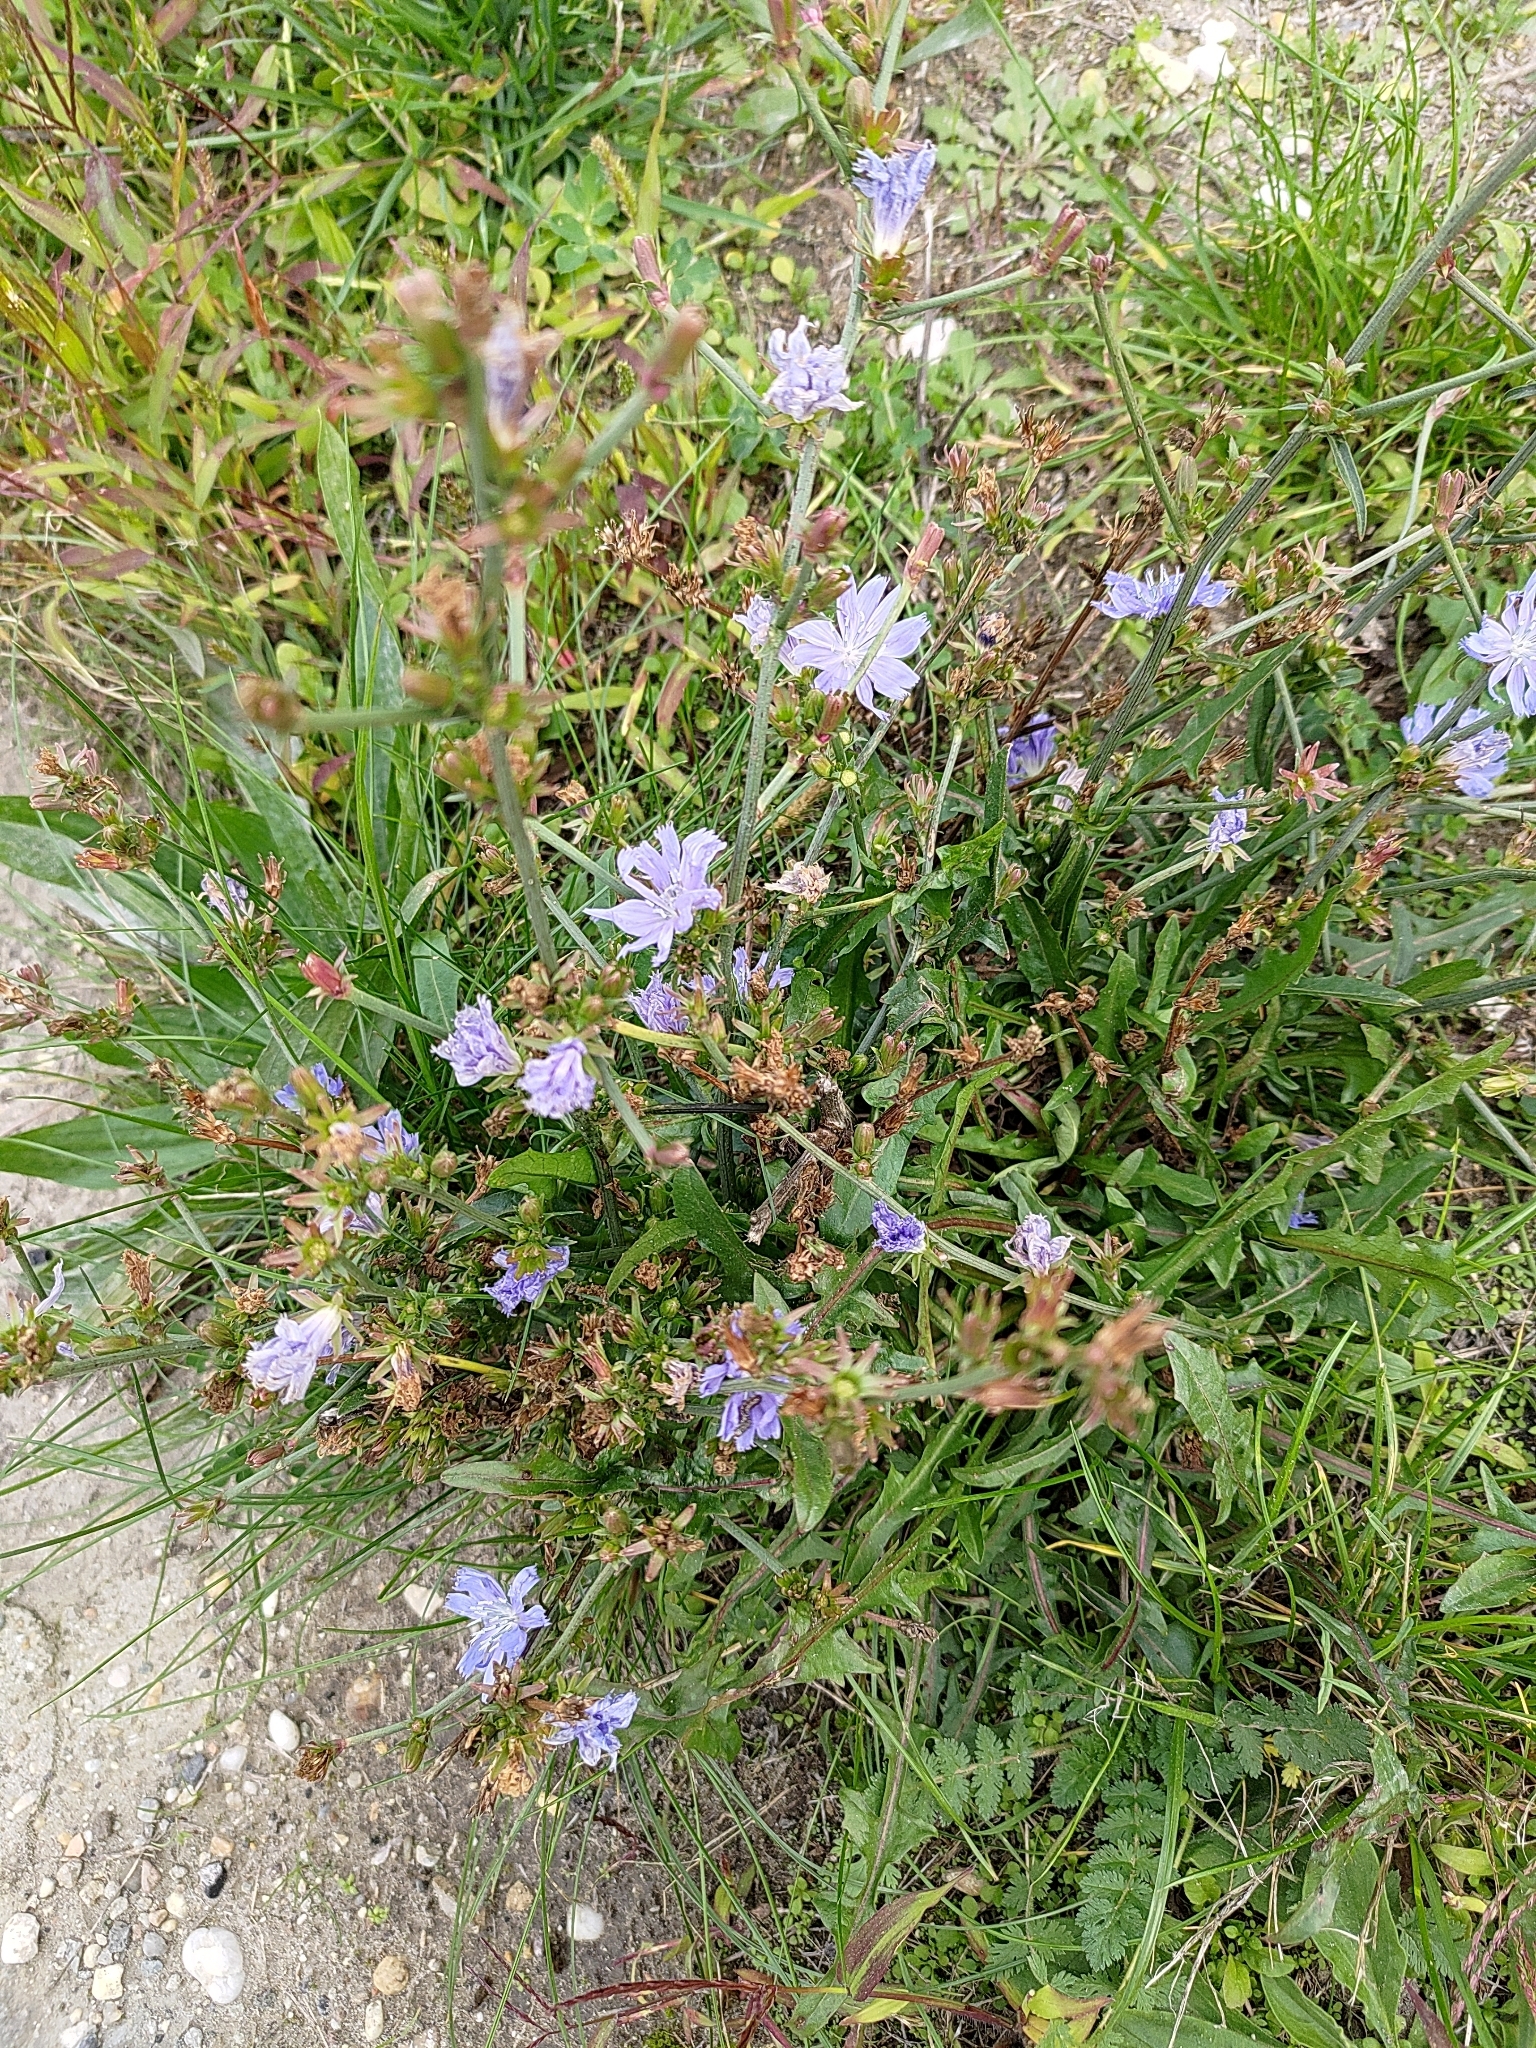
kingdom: Plantae
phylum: Tracheophyta
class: Magnoliopsida
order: Asterales
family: Asteraceae
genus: Cichorium
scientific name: Cichorium intybus
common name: Chicory
